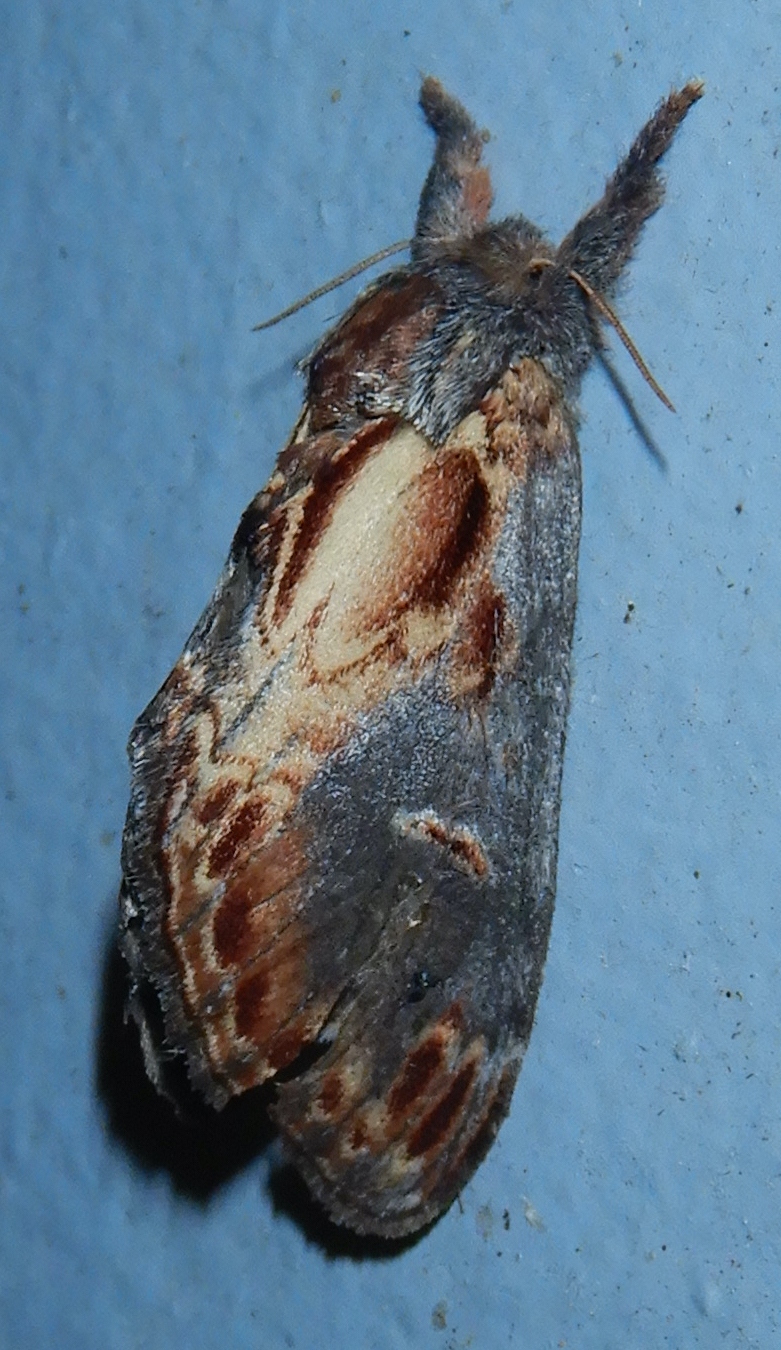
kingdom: Animalia
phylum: Arthropoda
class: Insecta
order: Lepidoptera
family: Notodontidae
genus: Notodonta
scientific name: Notodonta scitipennis
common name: Finned-willow prominent moth
